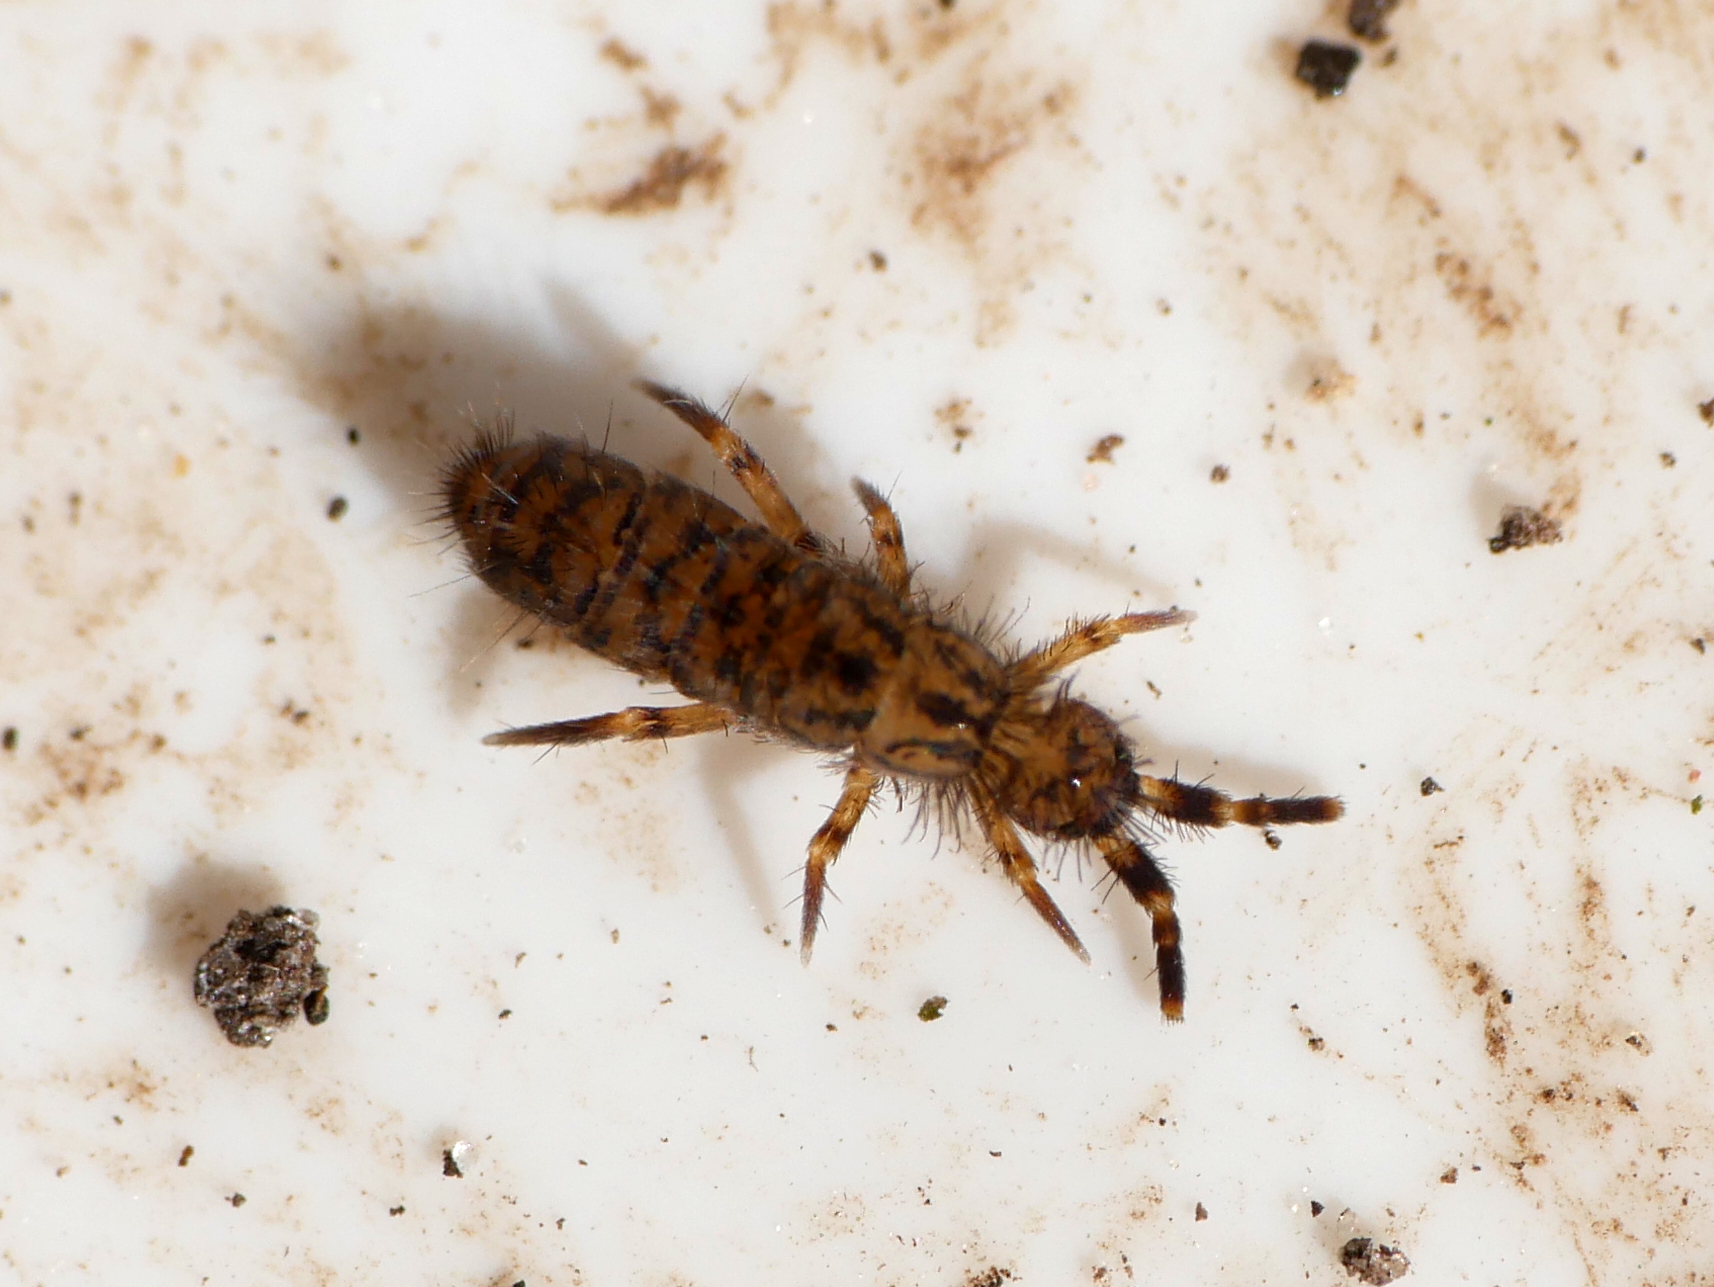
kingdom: Animalia
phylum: Arthropoda
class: Collembola
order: Entomobryomorpha
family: Orchesellidae
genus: Orchesella
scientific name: Orchesella villosa
